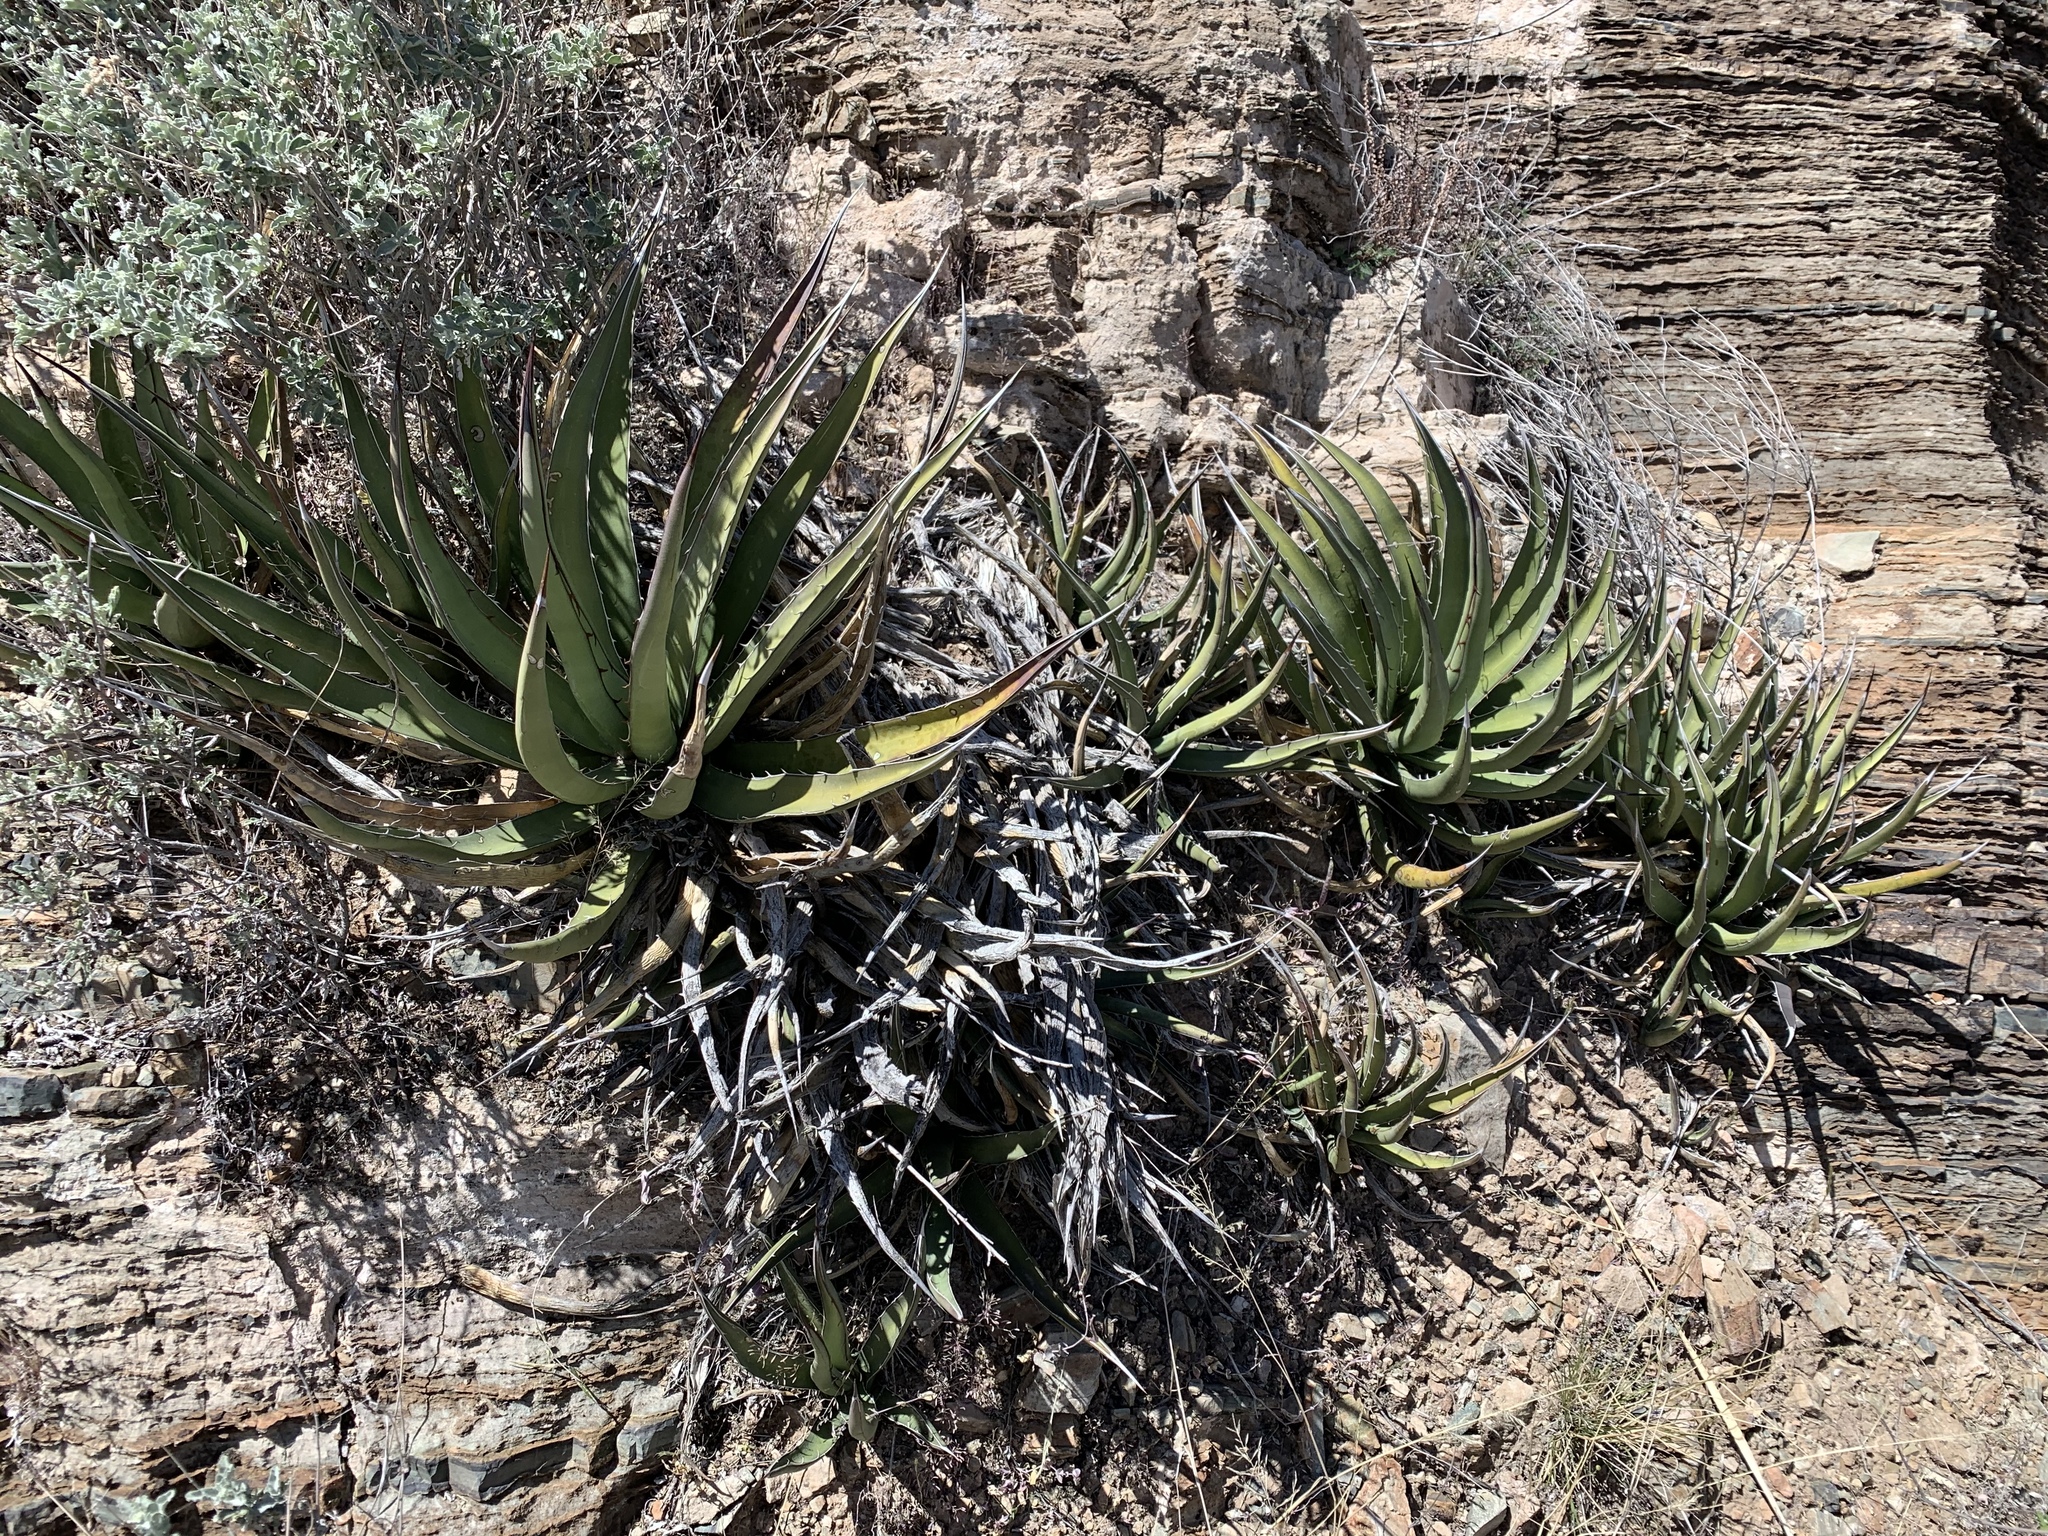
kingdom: Plantae
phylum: Tracheophyta
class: Liliopsida
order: Asparagales
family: Asparagaceae
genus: Agave
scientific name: Agave lechuguilla
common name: Lecheguilla agave
